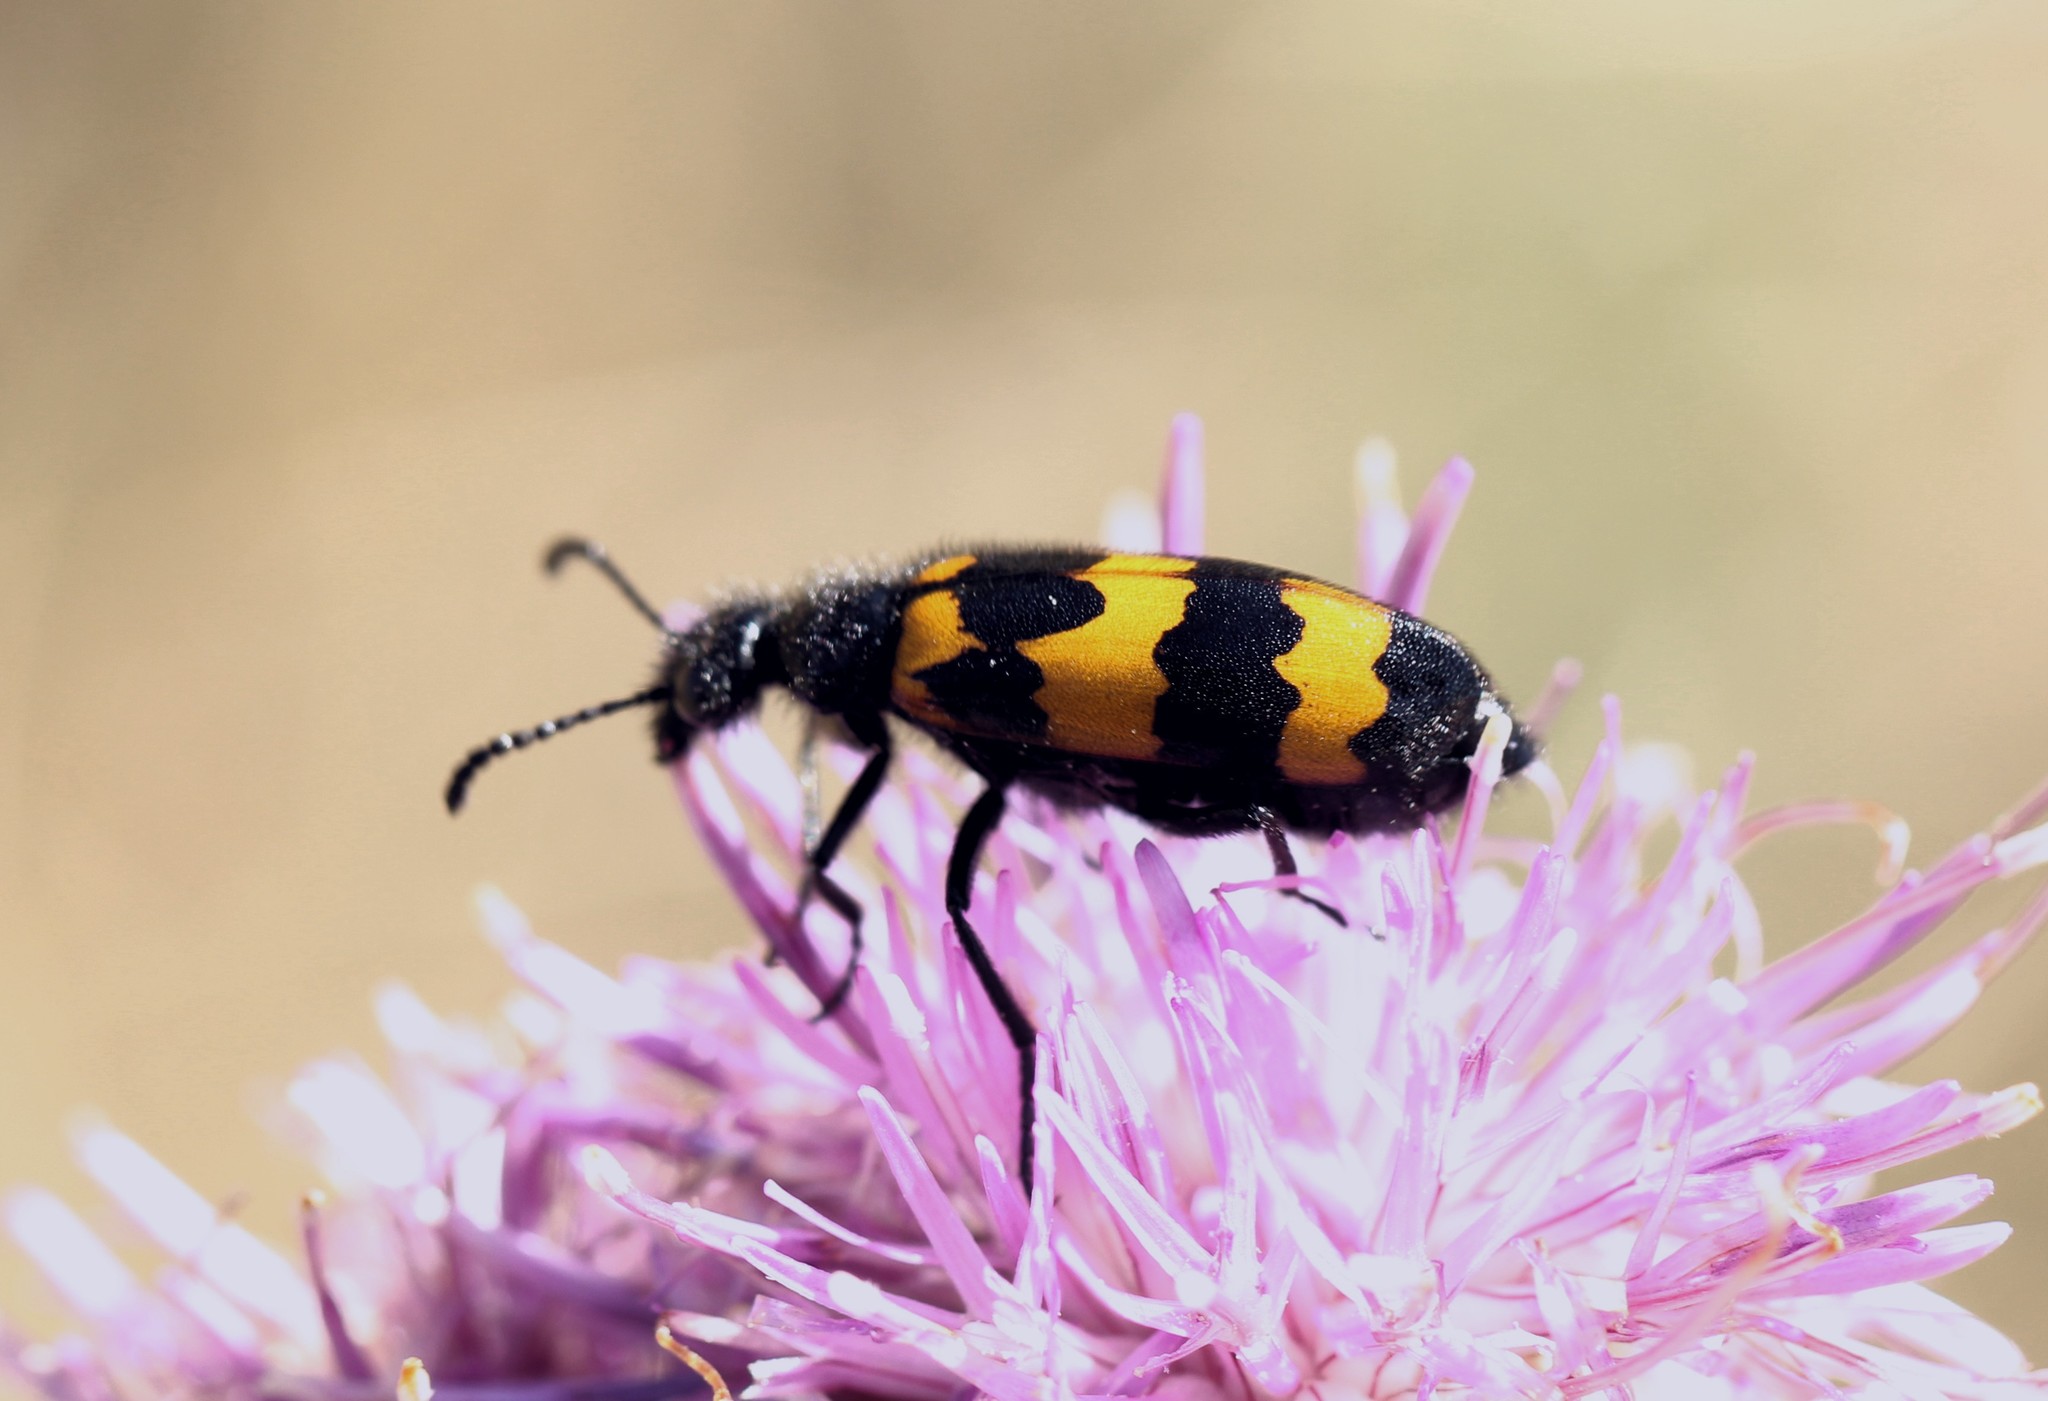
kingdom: Animalia
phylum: Arthropoda
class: Insecta
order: Coleoptera
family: Meloidae
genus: Mylabris
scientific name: Mylabris variabilis
